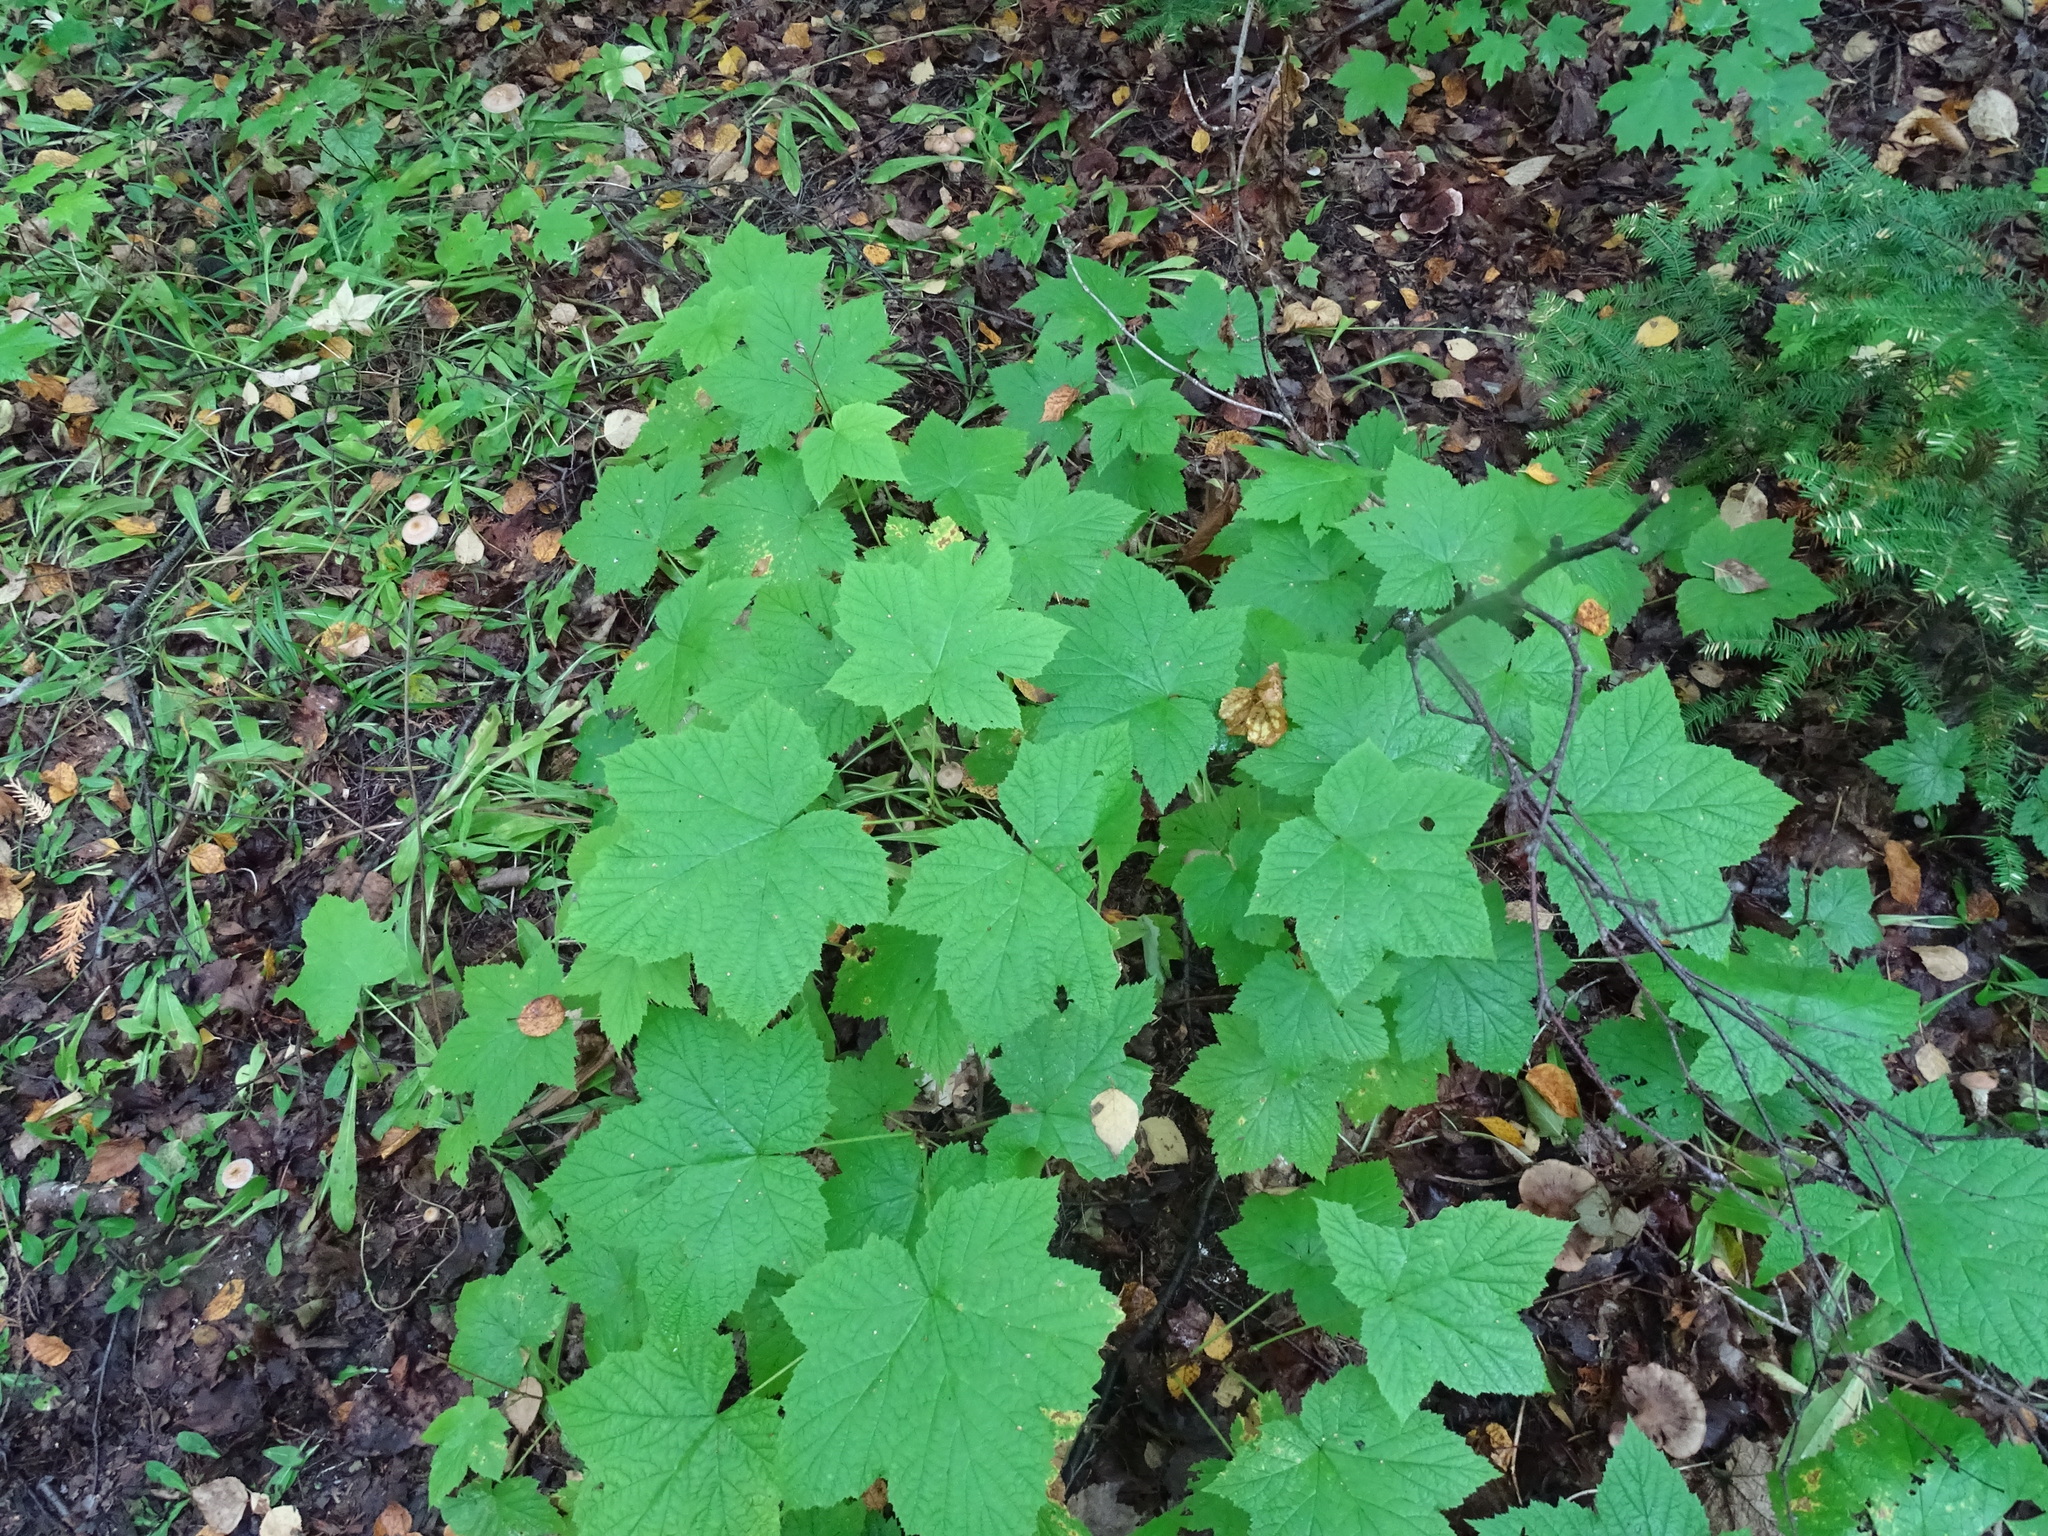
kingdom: Plantae
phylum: Tracheophyta
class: Magnoliopsida
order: Rosales
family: Rosaceae
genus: Rubus
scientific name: Rubus parviflorus
